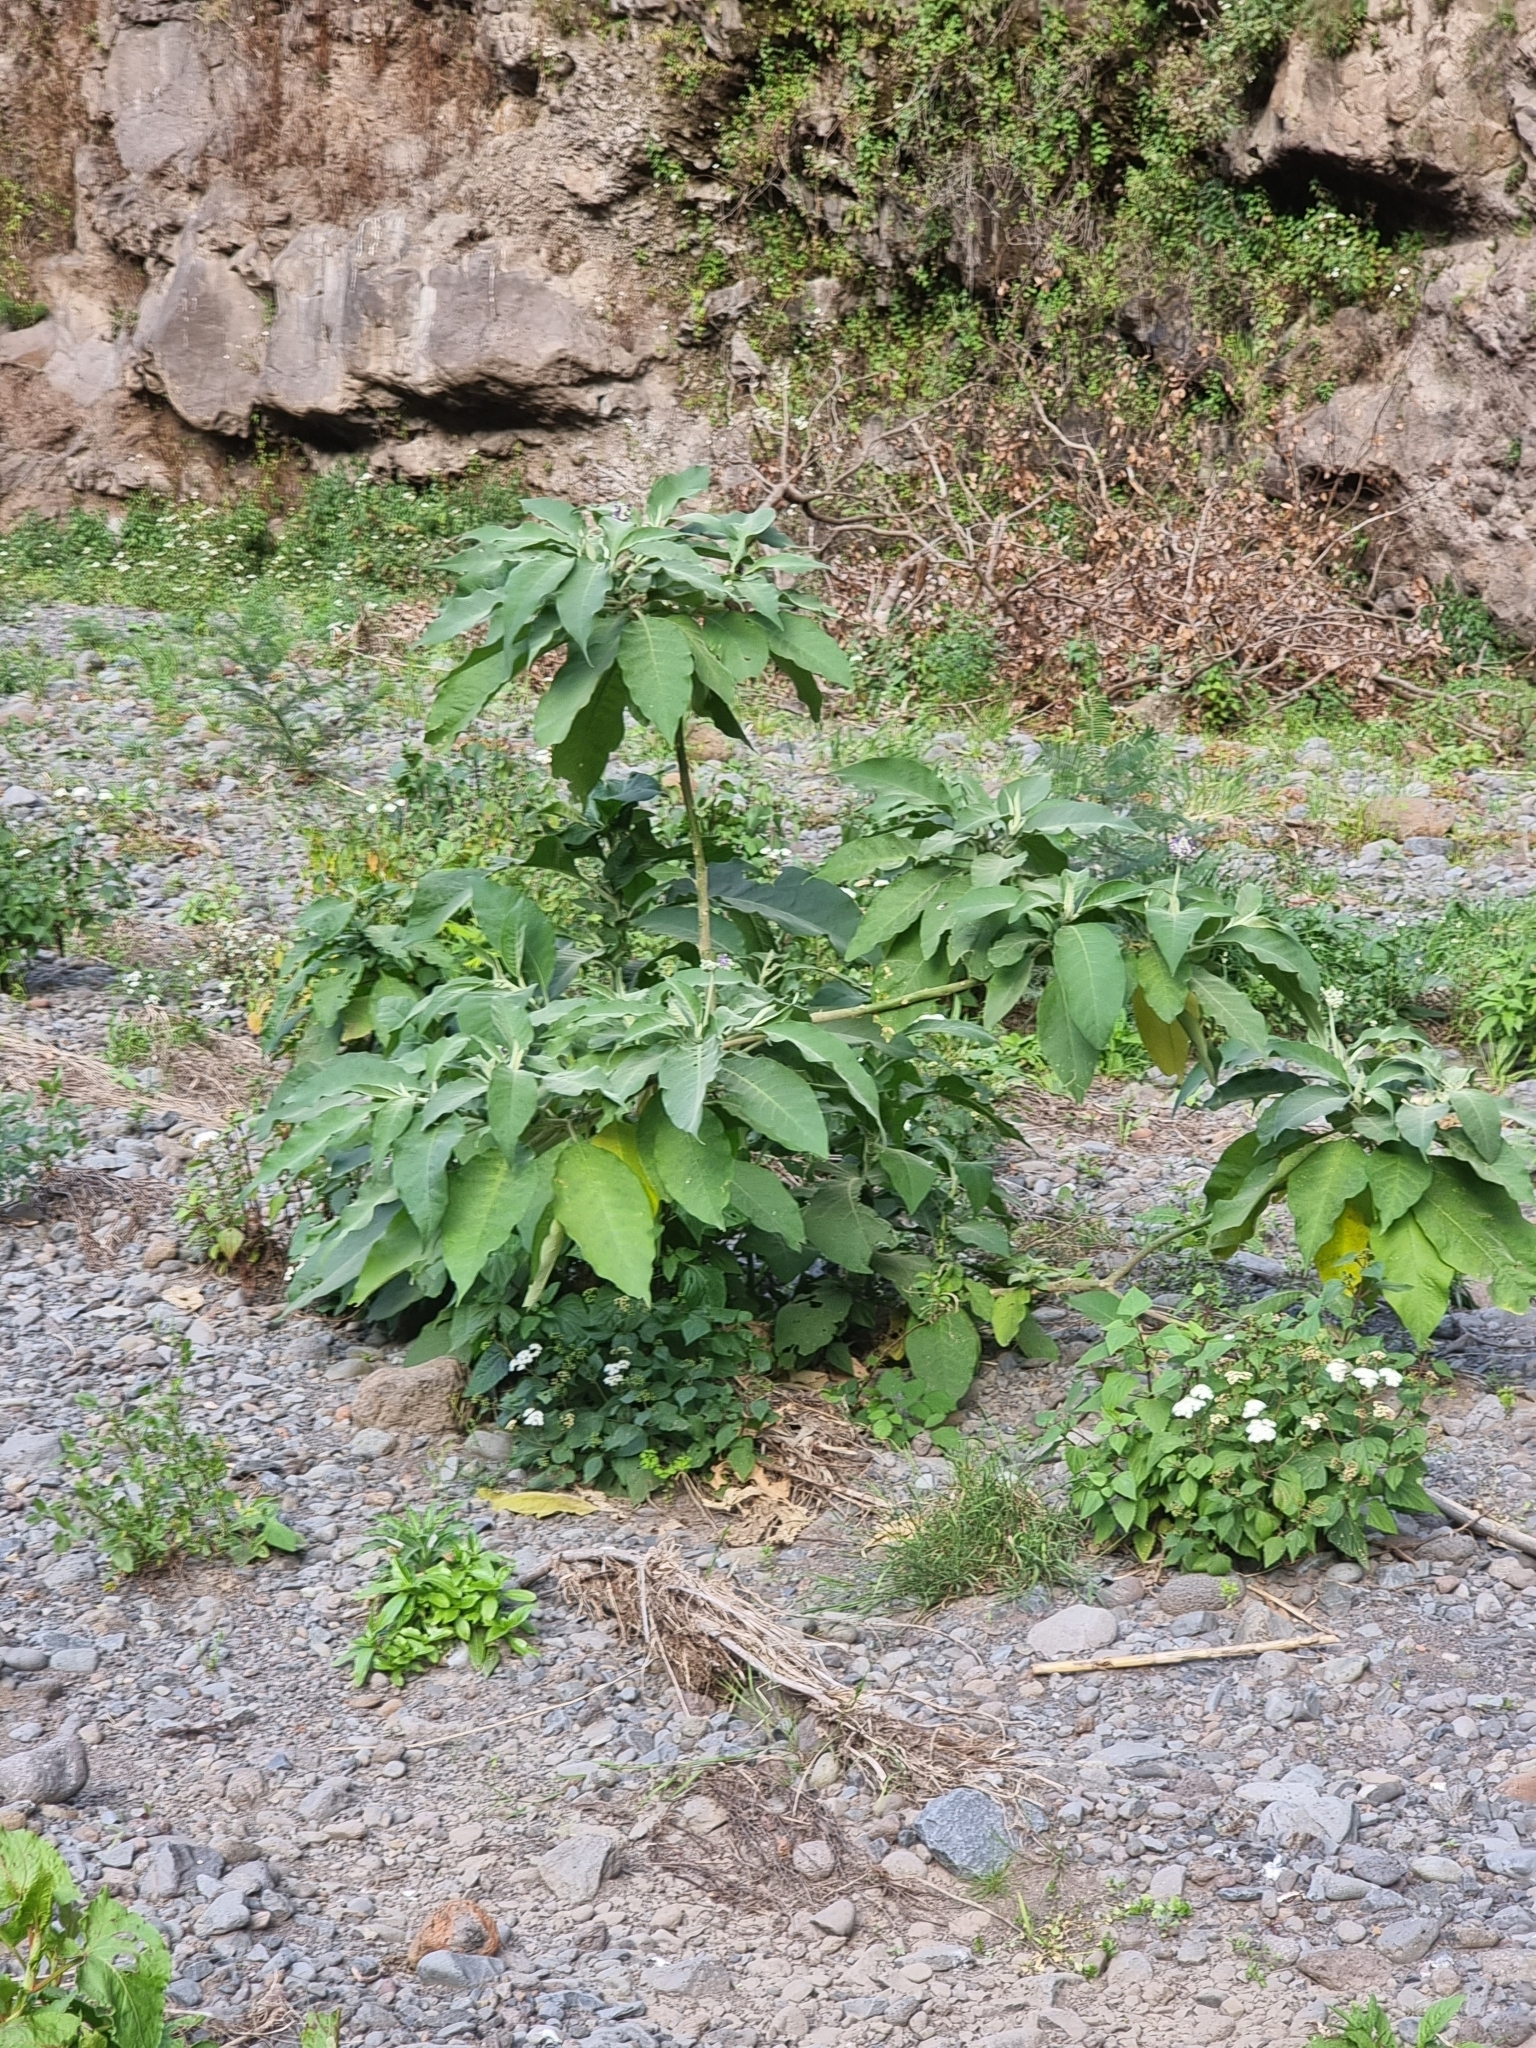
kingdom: Plantae
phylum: Tracheophyta
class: Magnoliopsida
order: Solanales
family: Solanaceae
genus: Solanum
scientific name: Solanum mauritianum
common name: Earleaf nightshade
